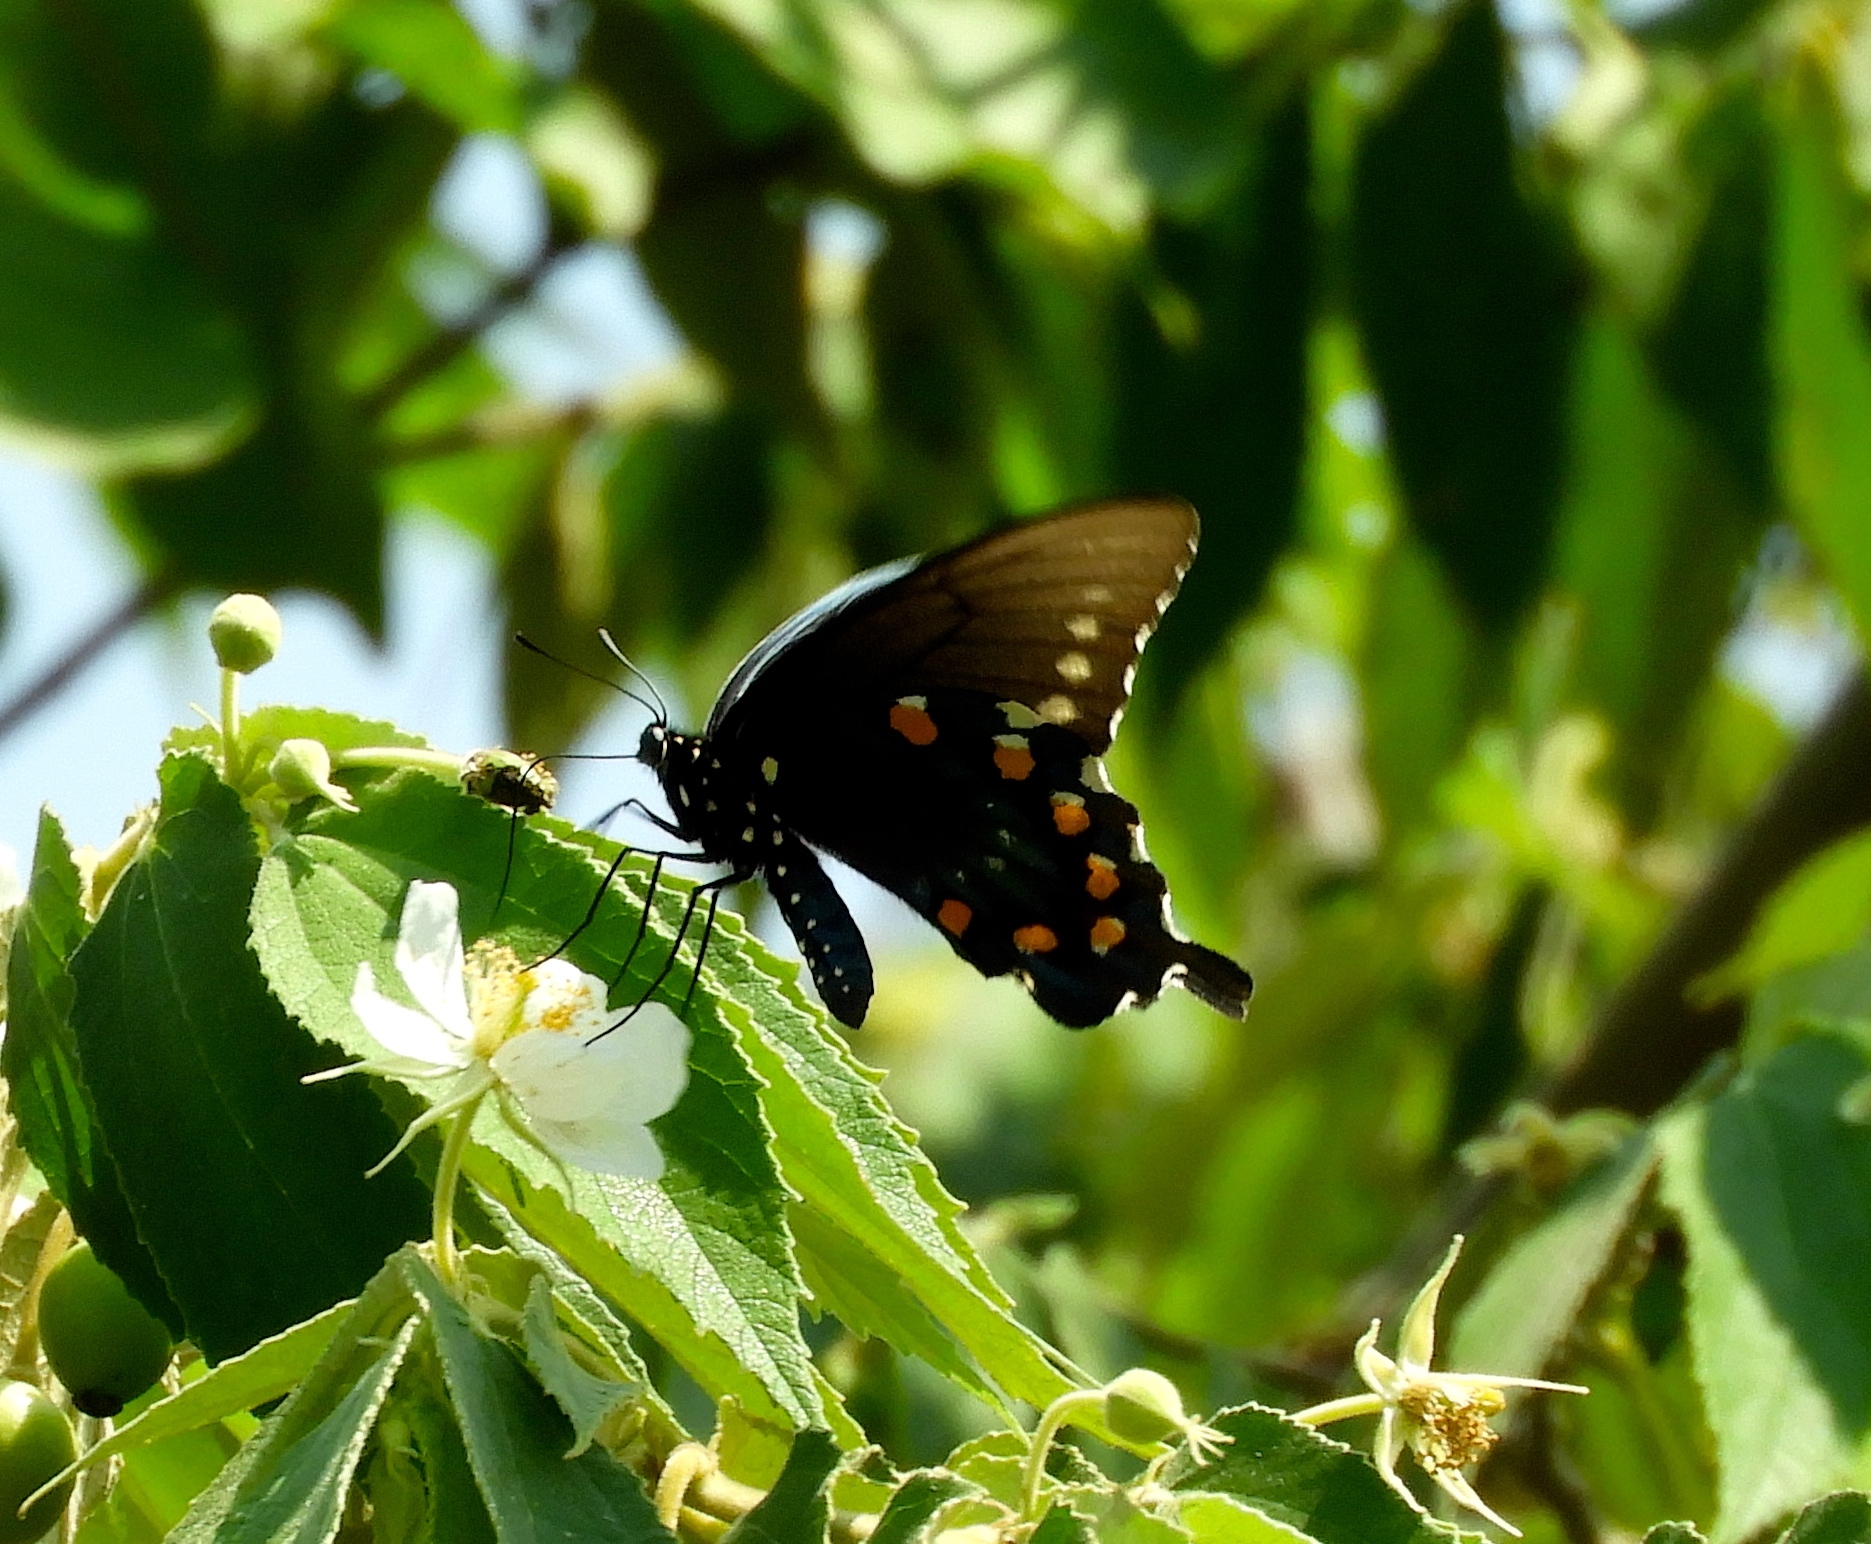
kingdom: Animalia
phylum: Arthropoda
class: Insecta
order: Lepidoptera
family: Papilionidae
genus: Battus
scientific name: Battus philenor
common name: Pipevine swallowtail
